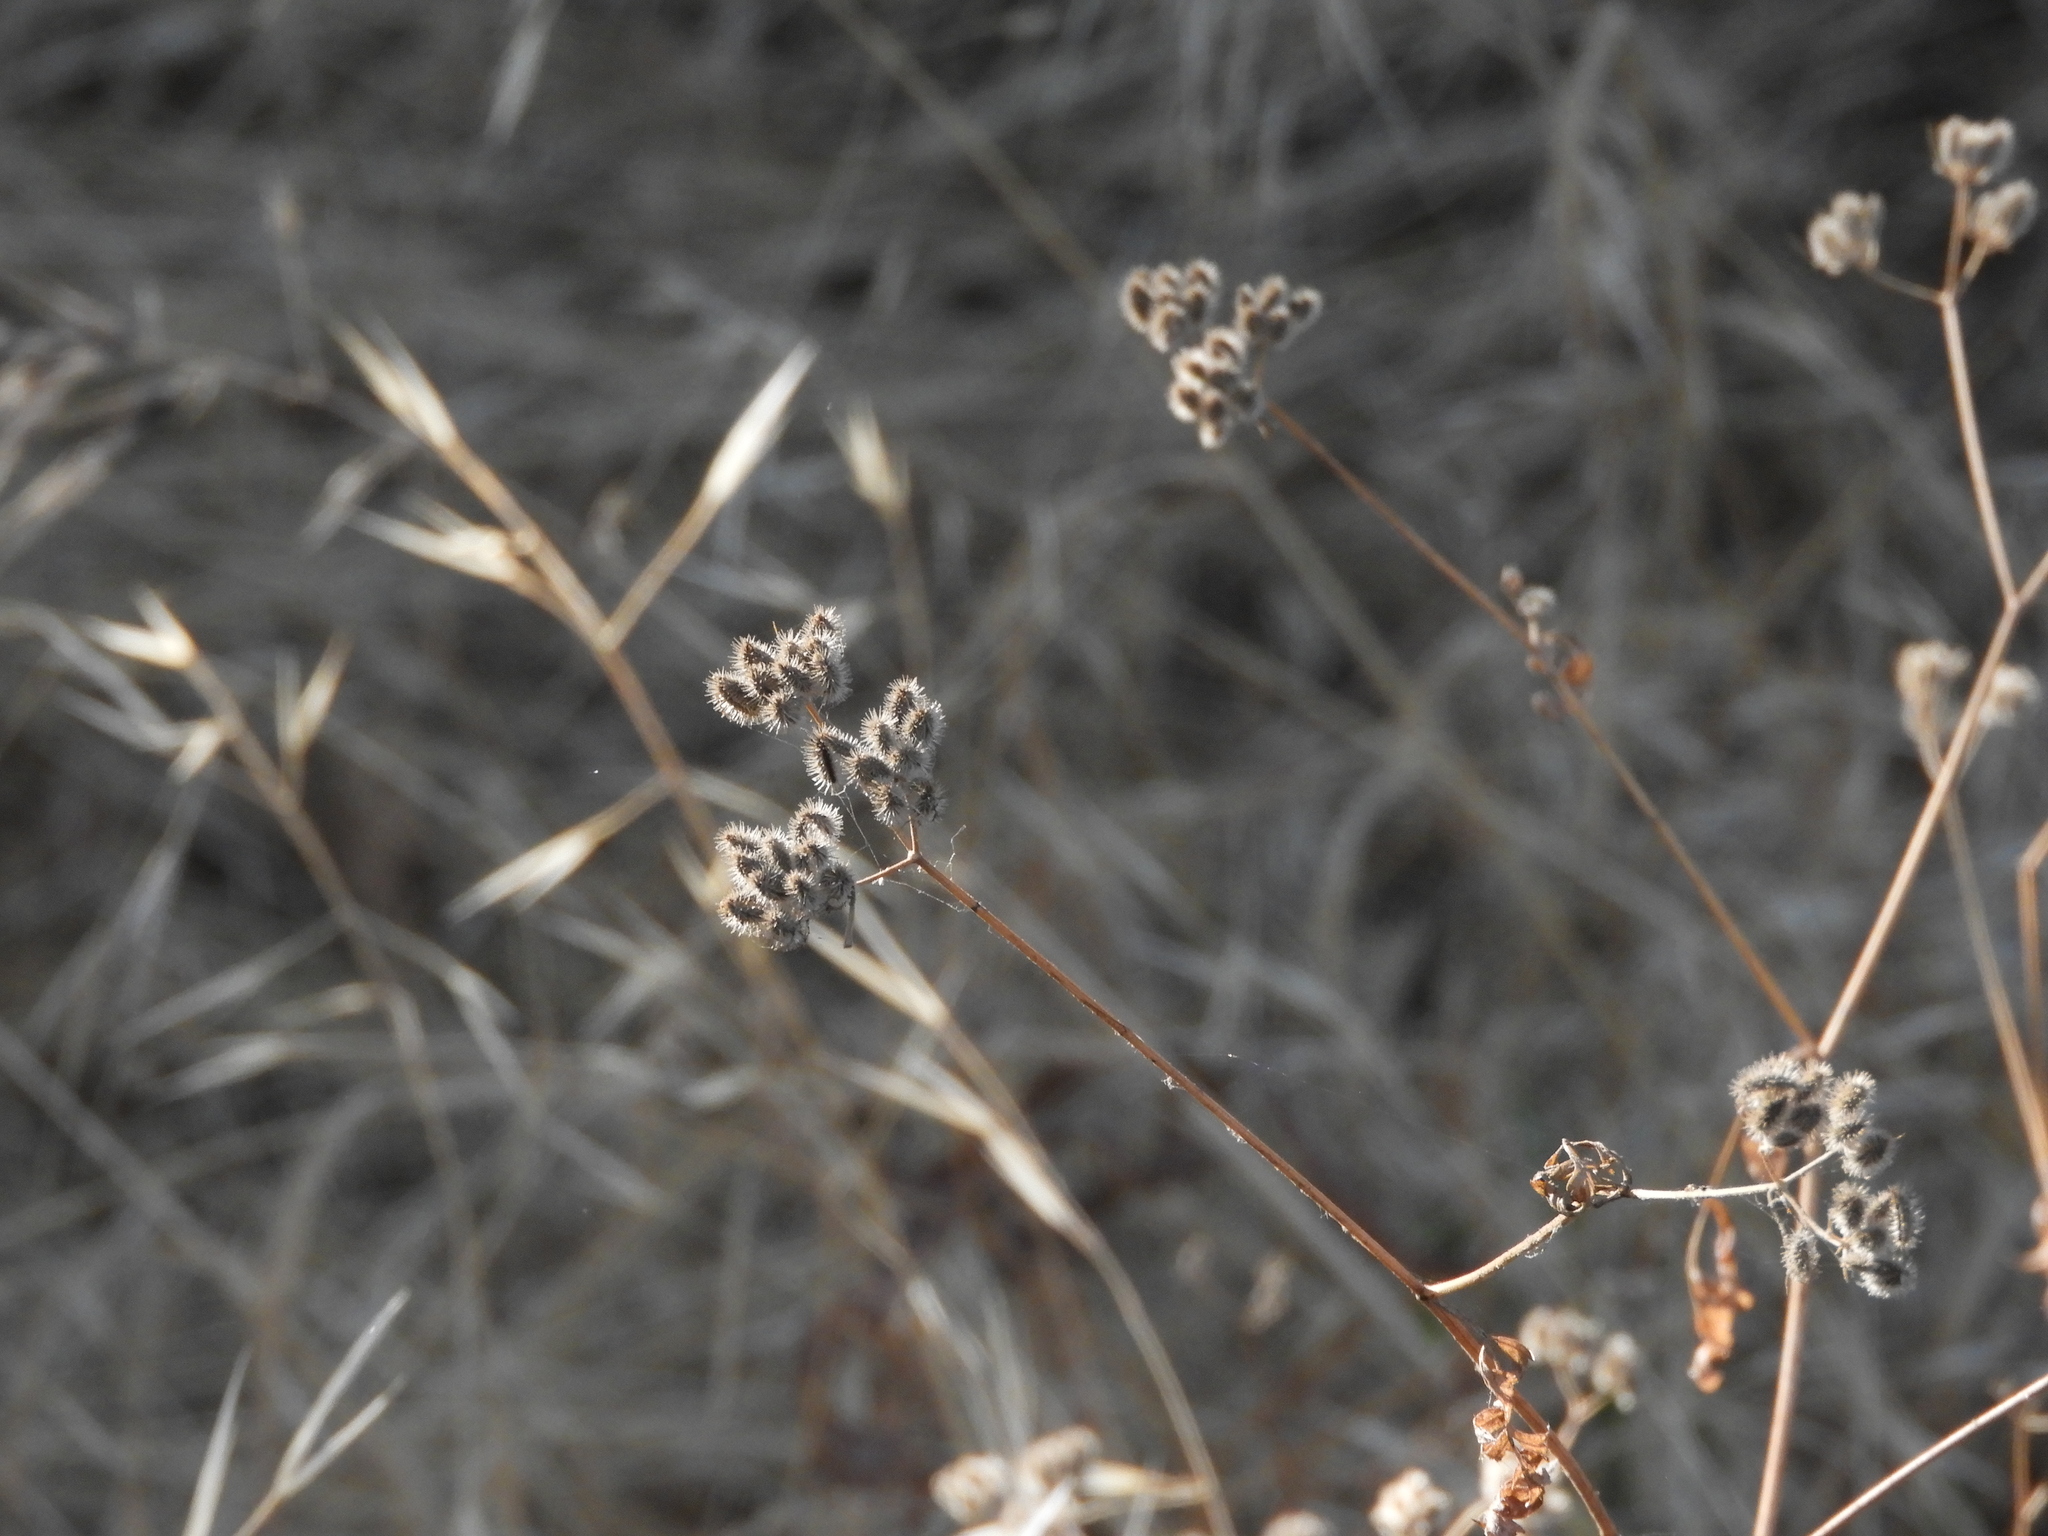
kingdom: Plantae
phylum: Tracheophyta
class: Magnoliopsida
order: Apiales
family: Apiaceae
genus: Torilis
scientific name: Torilis arvensis
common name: Spreading hedge-parsley
